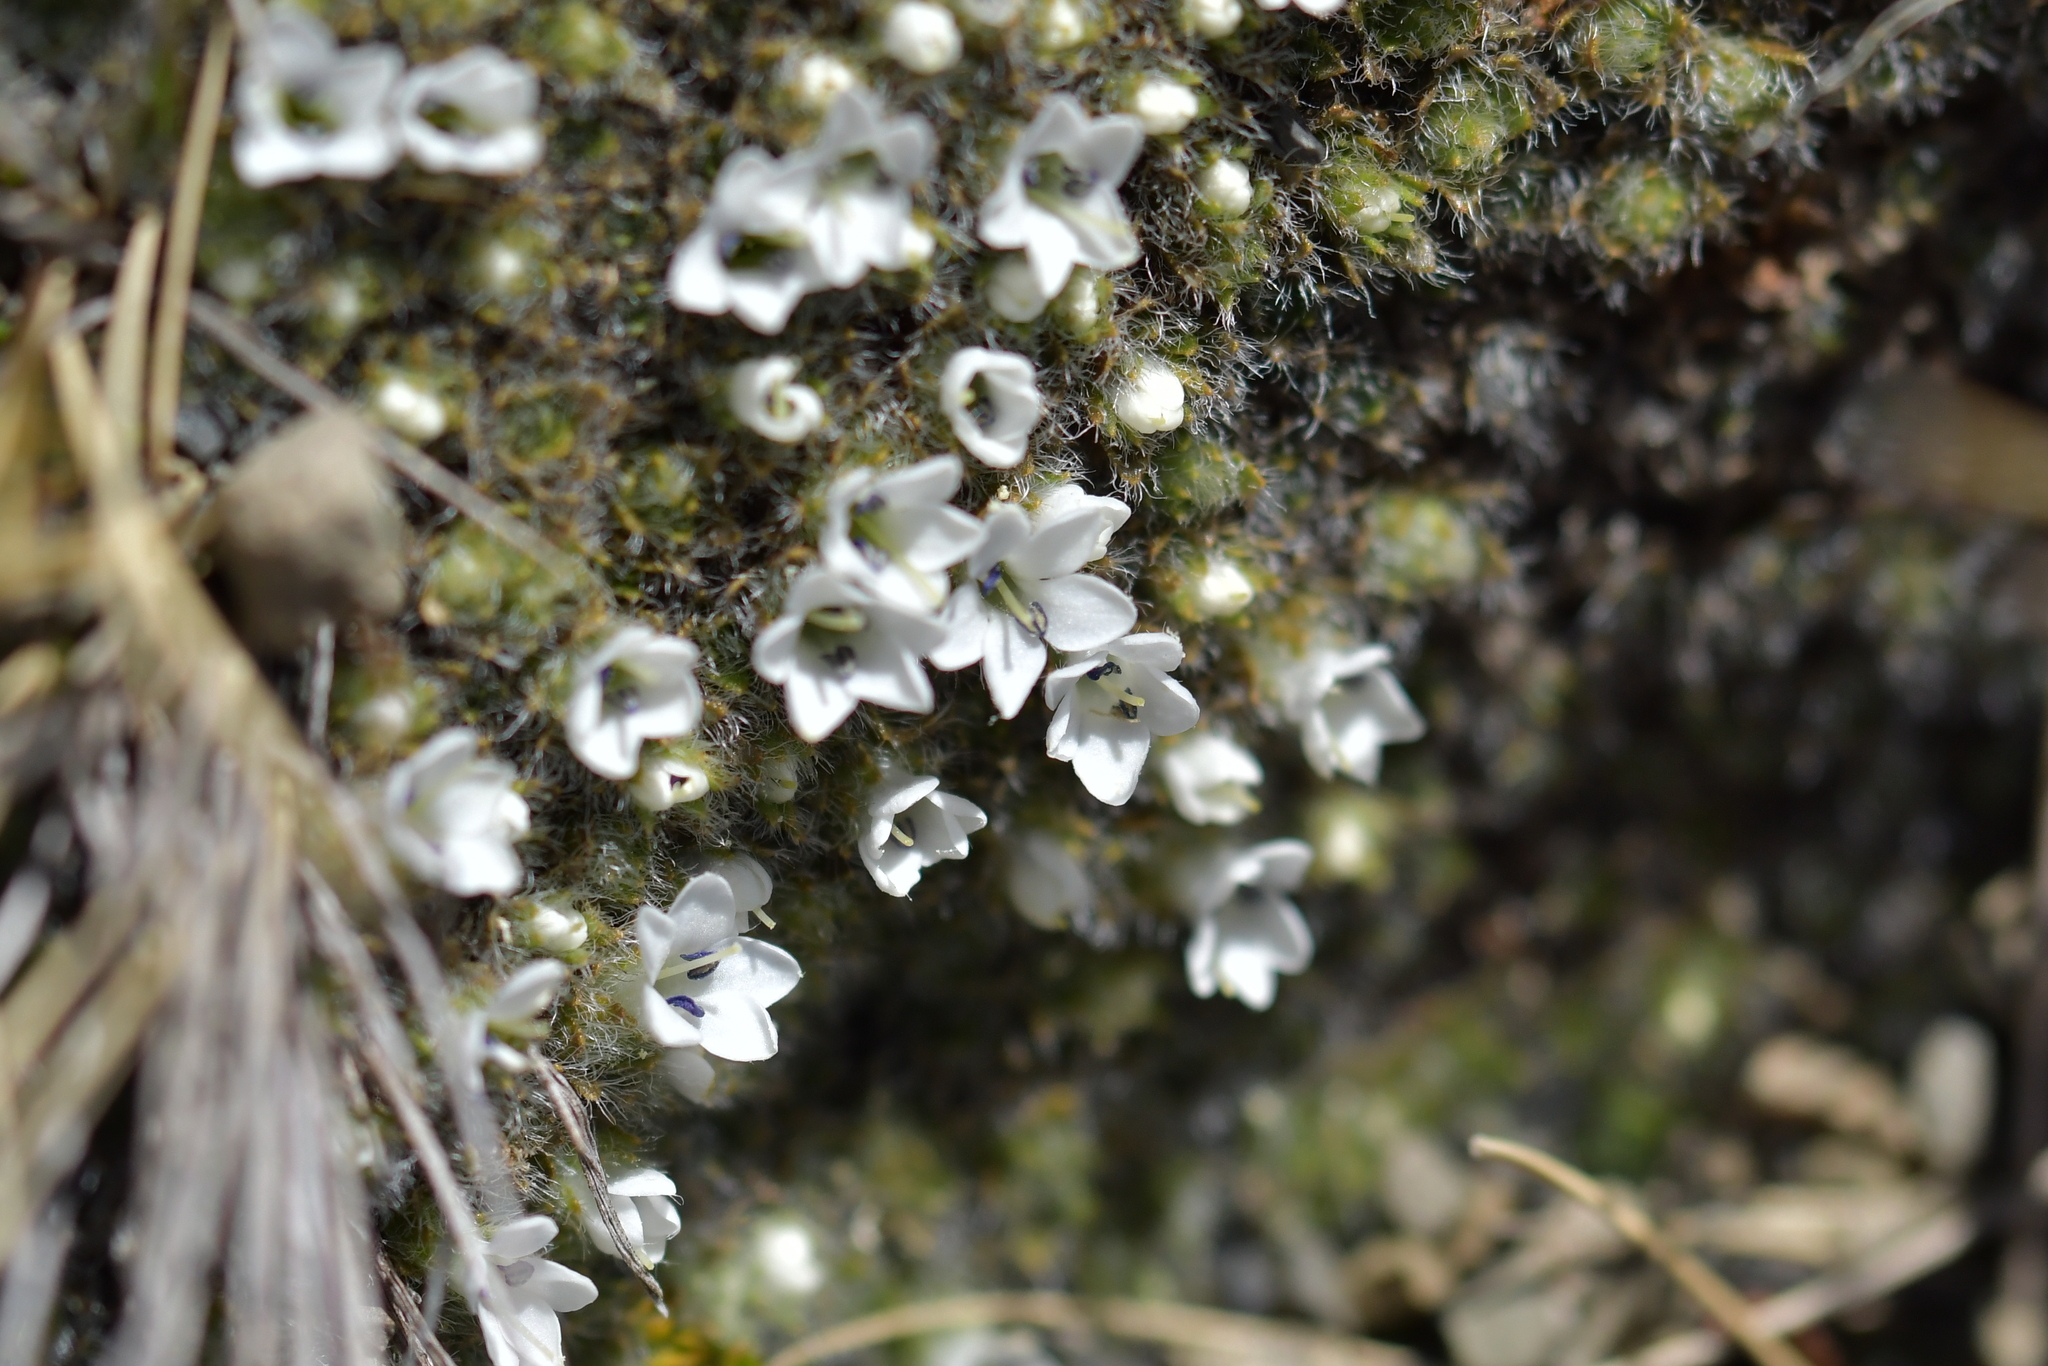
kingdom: Plantae
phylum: Tracheophyta
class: Magnoliopsida
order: Lamiales
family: Plantaginaceae
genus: Veronica
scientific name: Veronica pulvinaris
